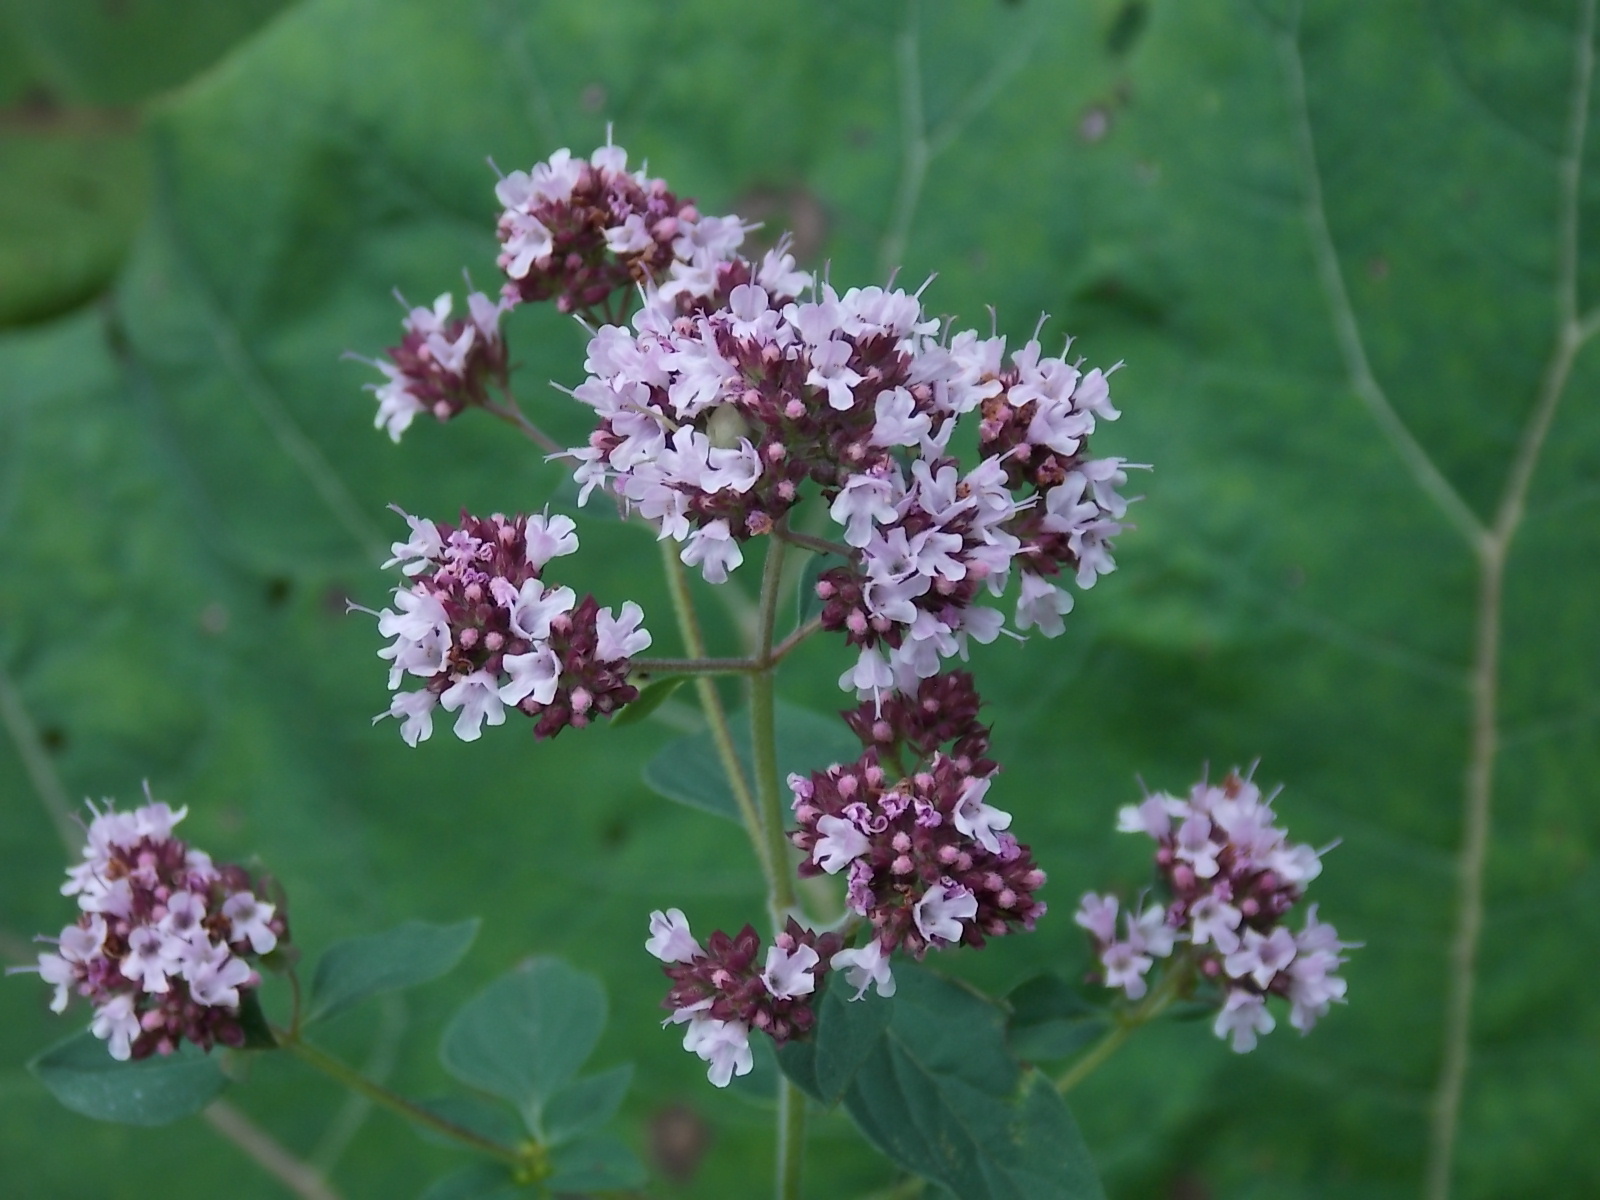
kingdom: Plantae
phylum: Tracheophyta
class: Magnoliopsida
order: Lamiales
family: Lamiaceae
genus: Origanum
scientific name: Origanum vulgare
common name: Wild marjoram
